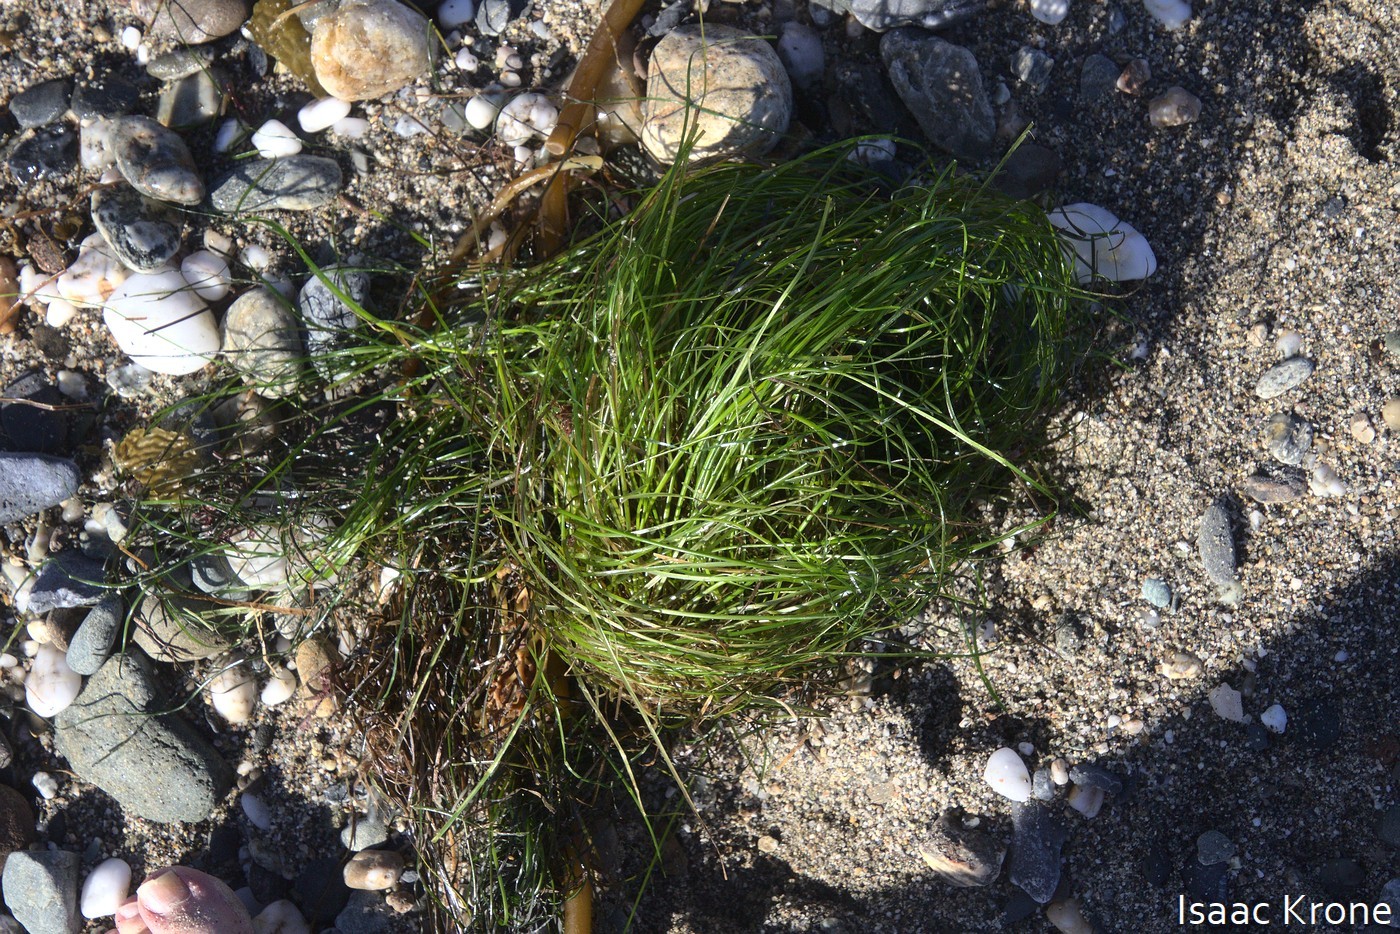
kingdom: Plantae
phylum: Tracheophyta
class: Liliopsida
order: Alismatales
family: Zosteraceae
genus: Phyllospadix
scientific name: Phyllospadix torreyi
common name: Surfgrass
